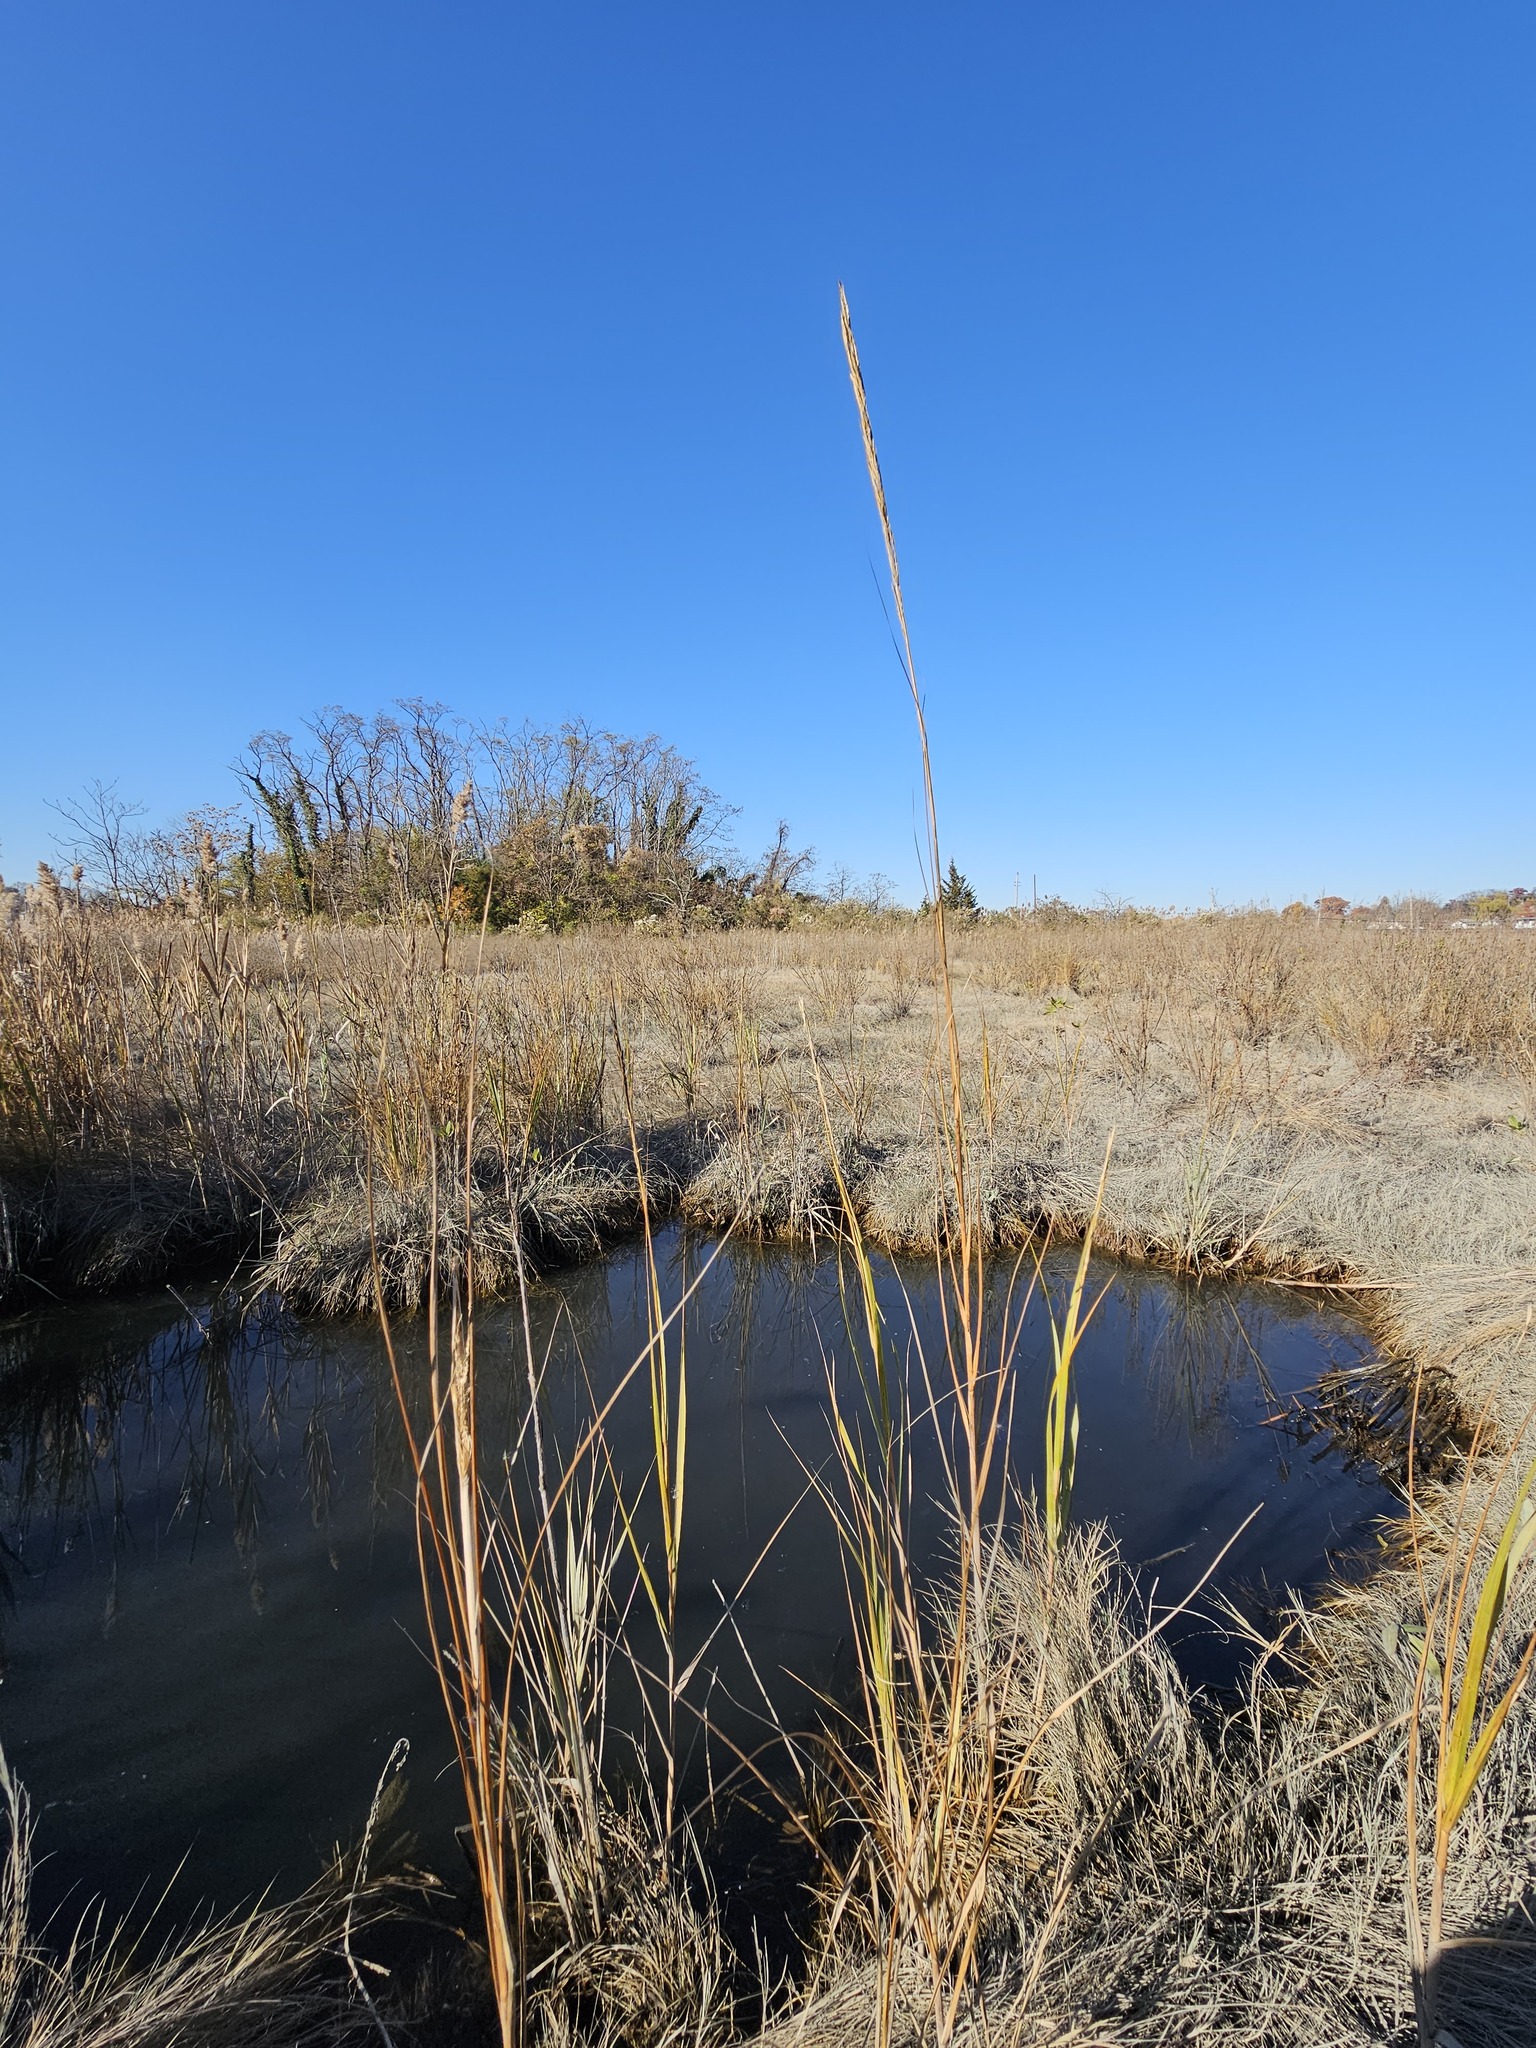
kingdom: Plantae
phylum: Tracheophyta
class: Liliopsida
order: Poales
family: Poaceae
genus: Sporobolus
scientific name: Sporobolus alterniflorus
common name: Atlantic cordgrass
